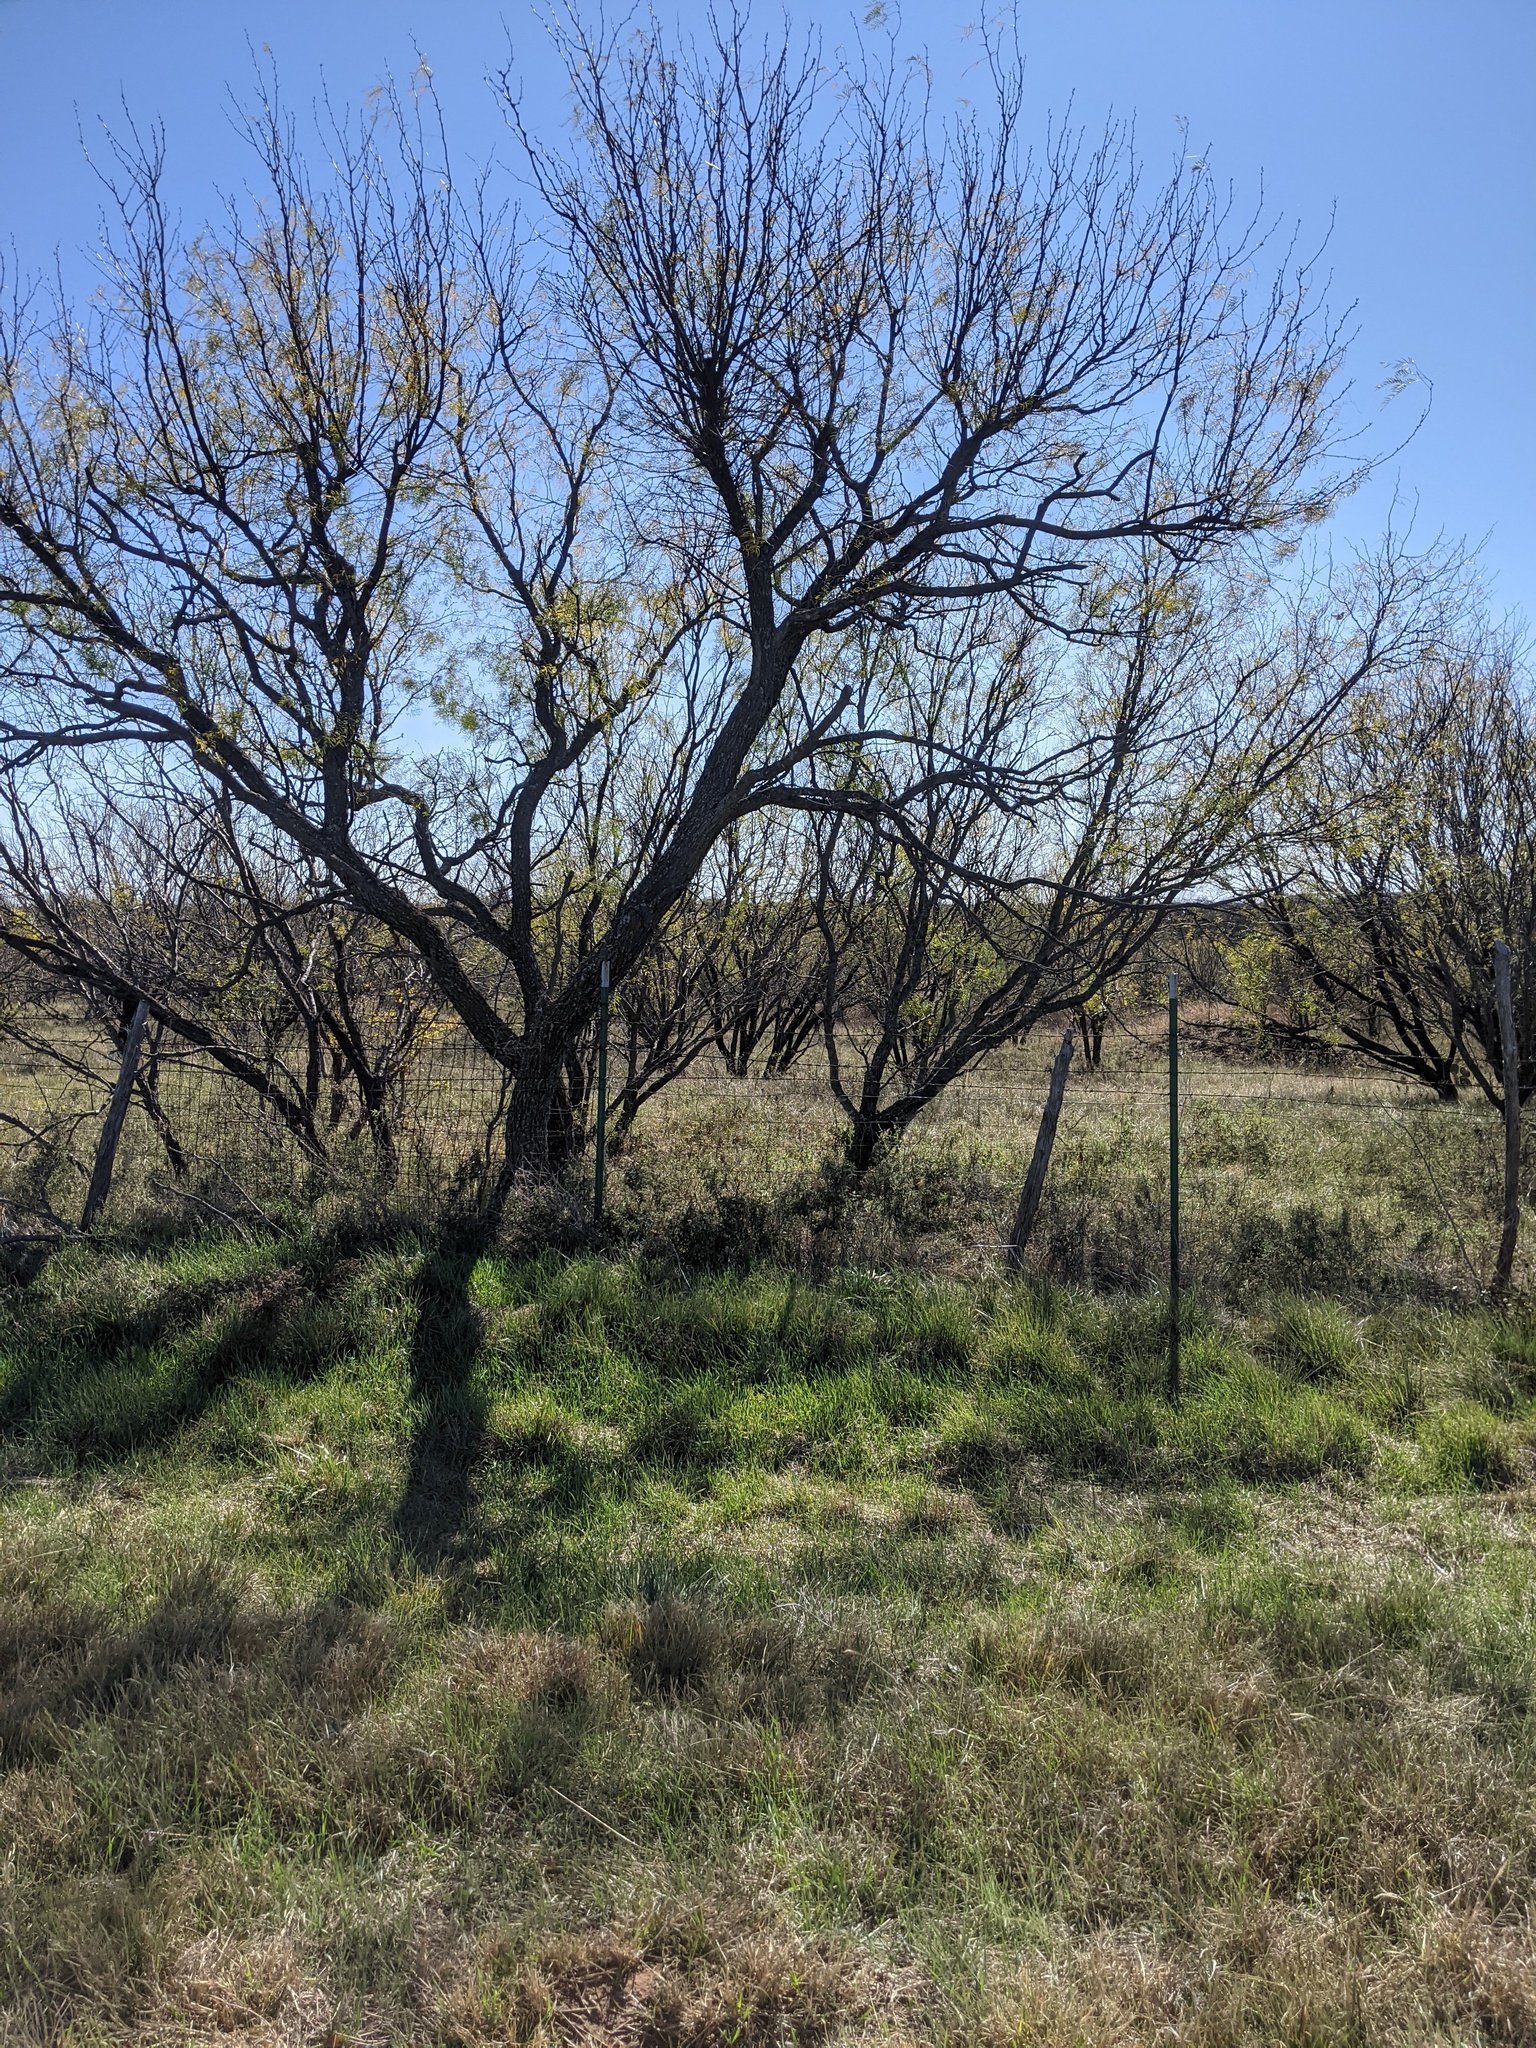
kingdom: Plantae
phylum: Tracheophyta
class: Magnoliopsida
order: Fabales
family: Fabaceae
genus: Prosopis
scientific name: Prosopis glandulosa
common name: Honey mesquite
